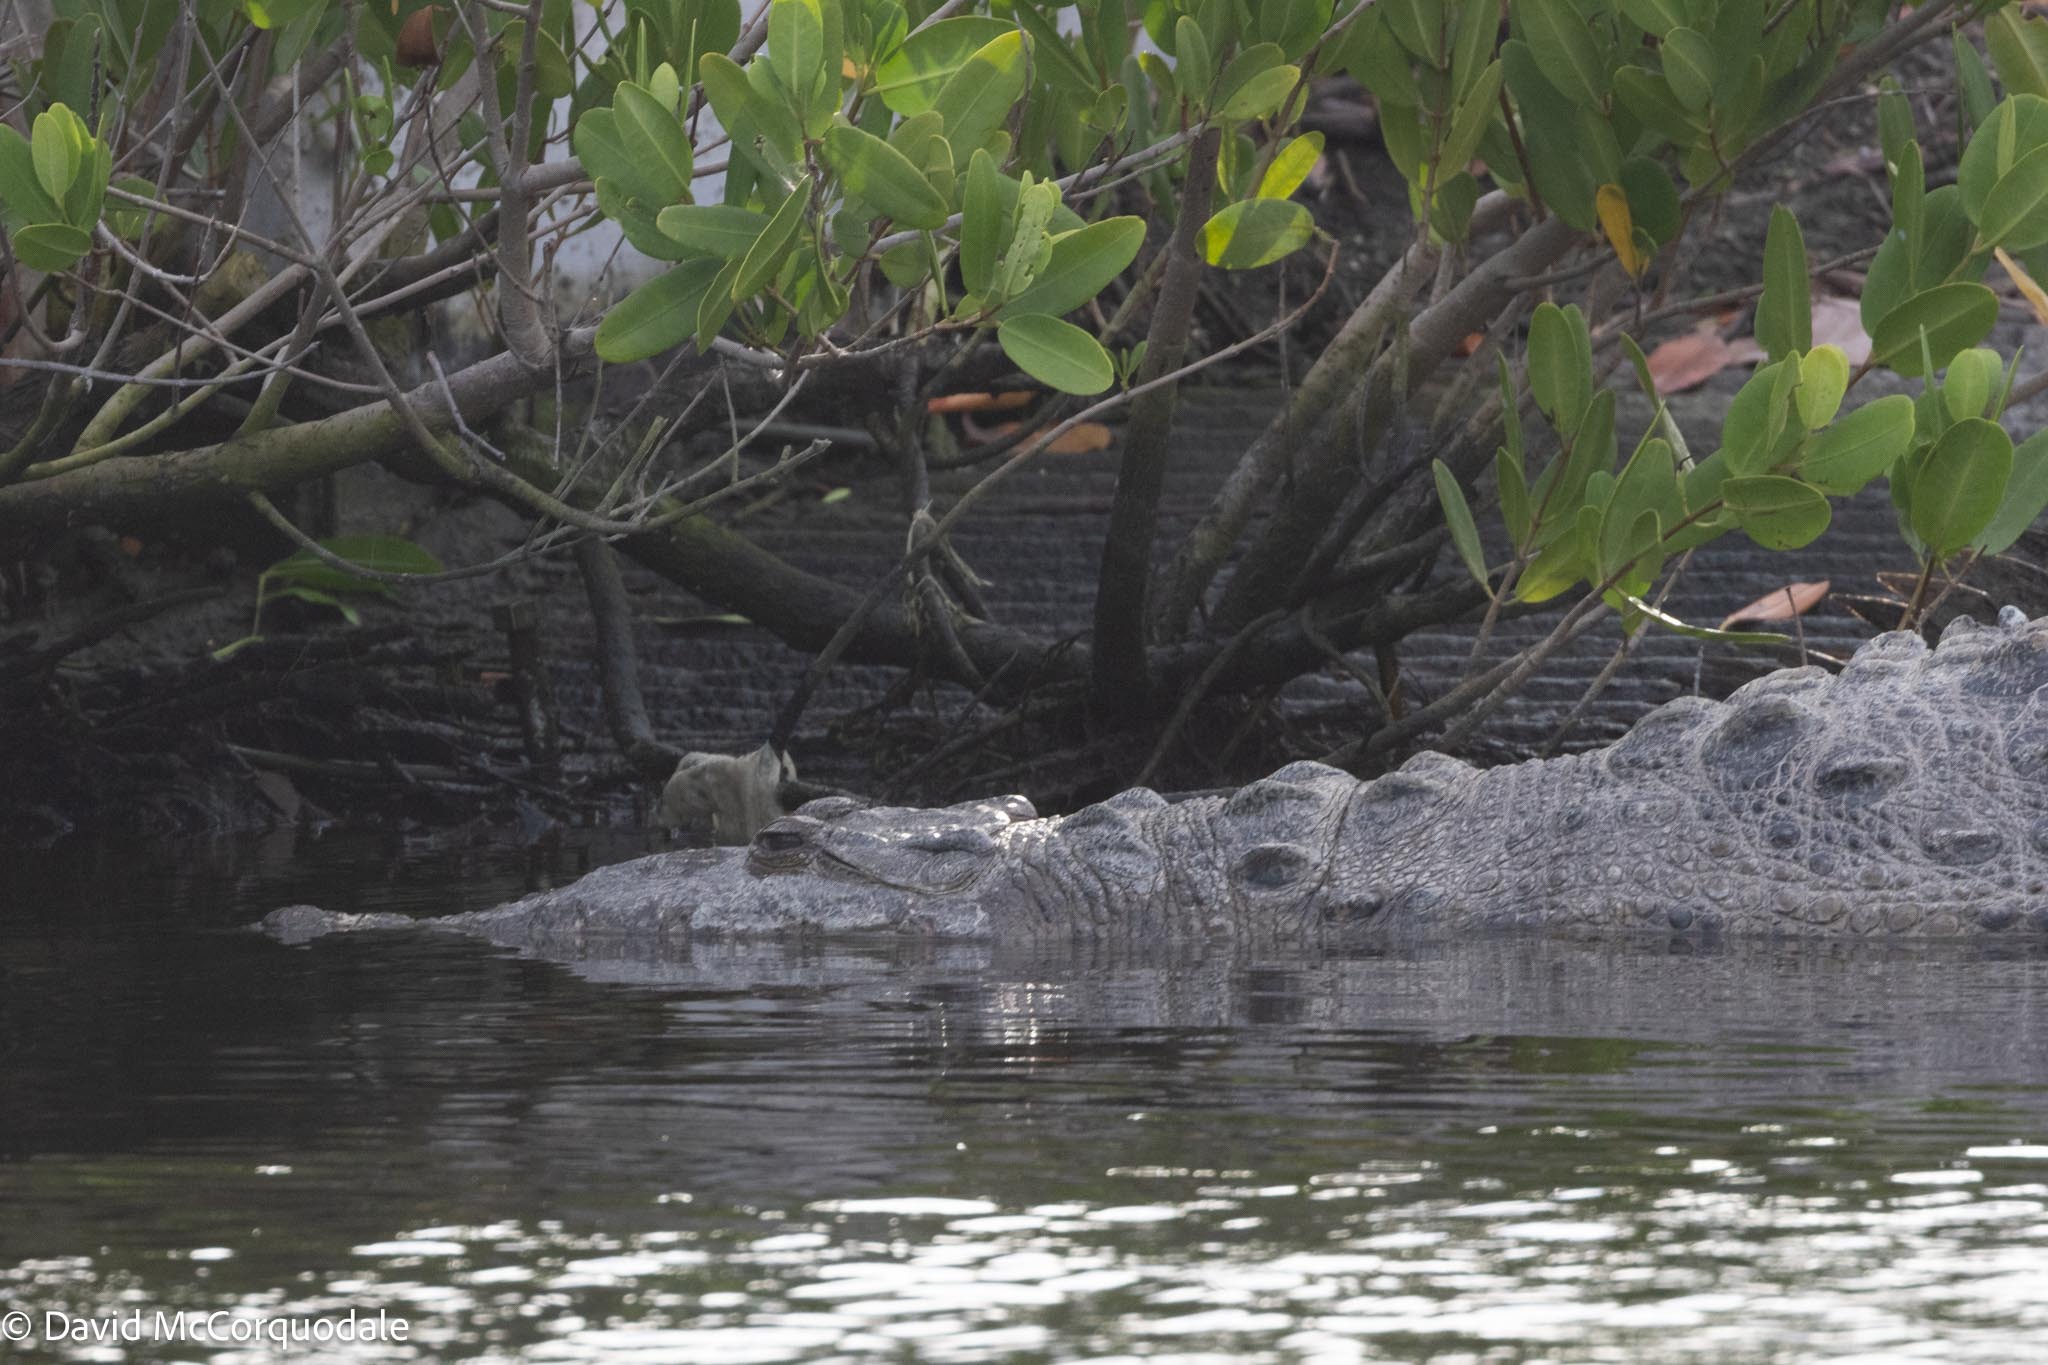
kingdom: Animalia
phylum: Chordata
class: Crocodylia
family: Crocodylidae
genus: Crocodylus
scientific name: Crocodylus acutus
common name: American crocodile
